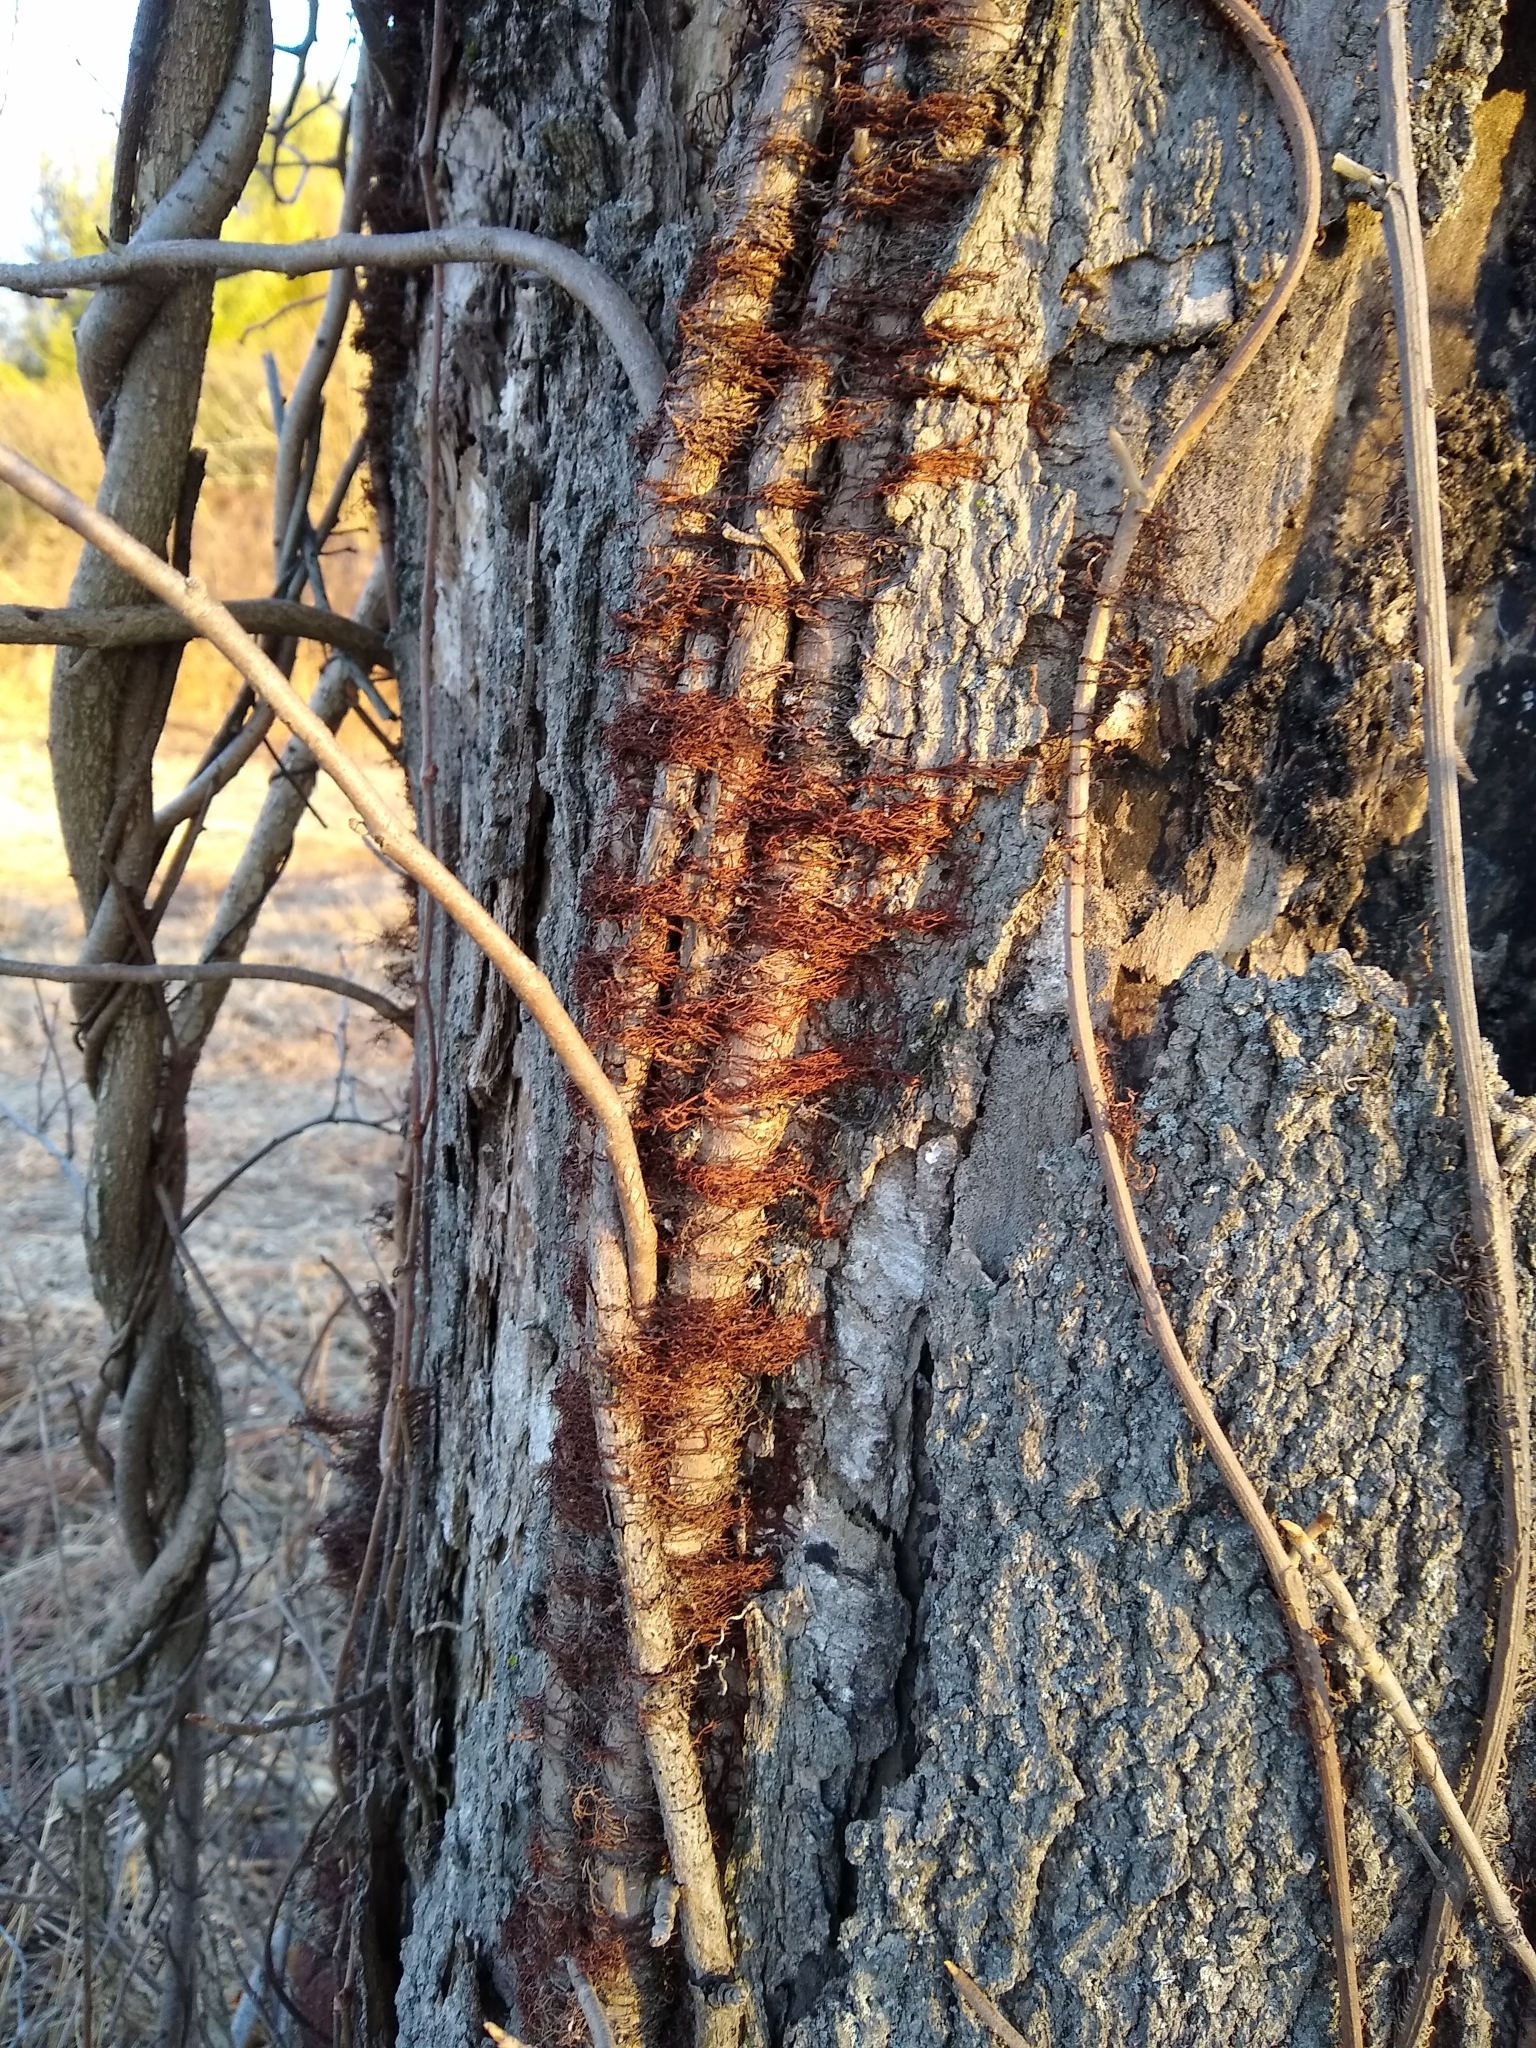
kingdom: Plantae
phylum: Tracheophyta
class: Magnoliopsida
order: Sapindales
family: Anacardiaceae
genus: Toxicodendron
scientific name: Toxicodendron radicans
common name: Poison ivy
